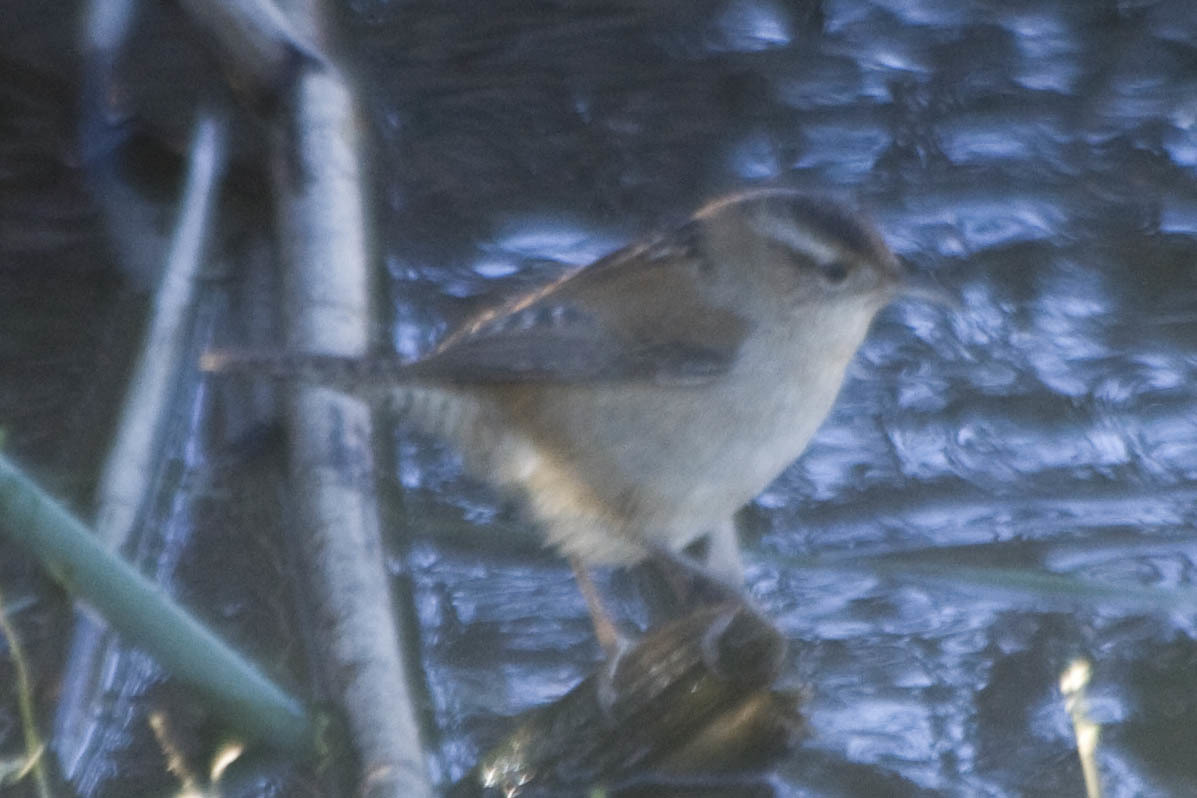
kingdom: Animalia
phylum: Chordata
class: Aves
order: Passeriformes
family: Troglodytidae
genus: Cistothorus
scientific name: Cistothorus palustris
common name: Marsh wren
